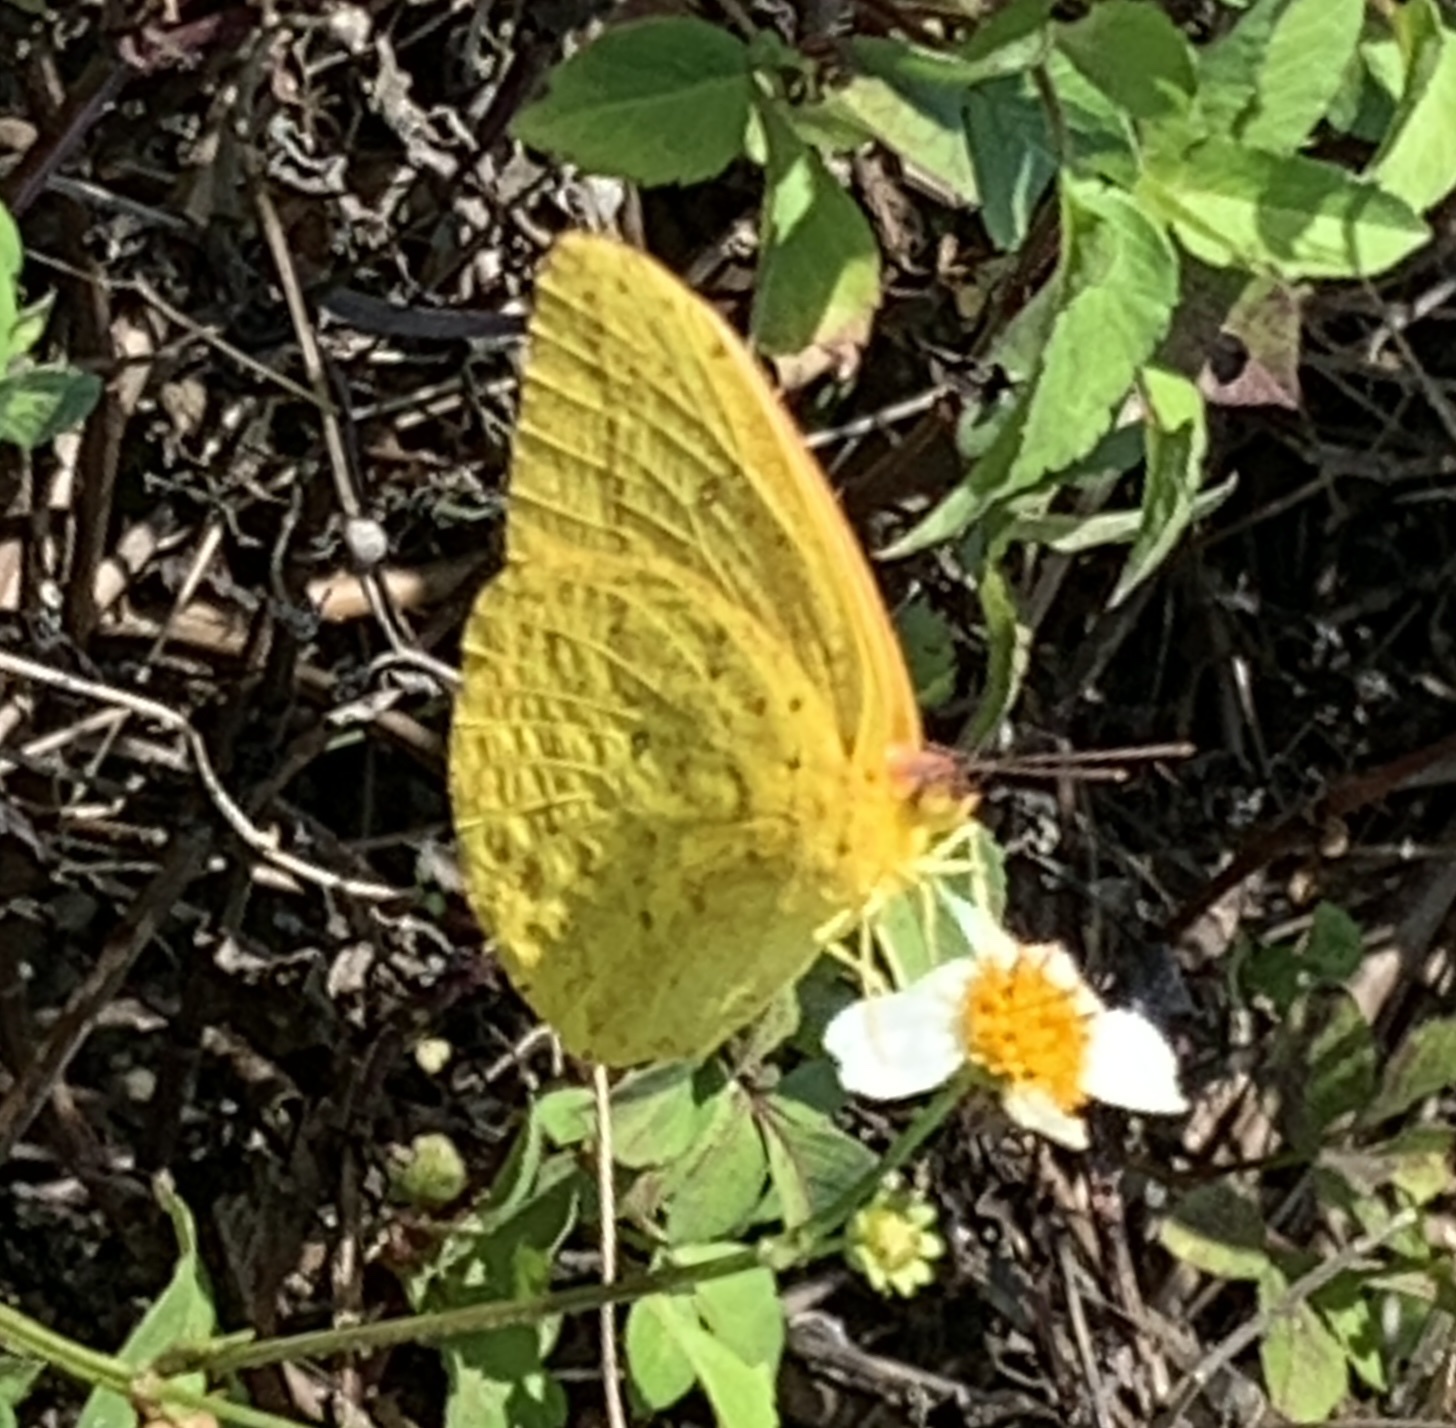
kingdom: Animalia
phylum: Arthropoda
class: Insecta
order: Lepidoptera
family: Pieridae
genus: Phoebis
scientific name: Phoebis agarithe
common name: Large orange sulphur
